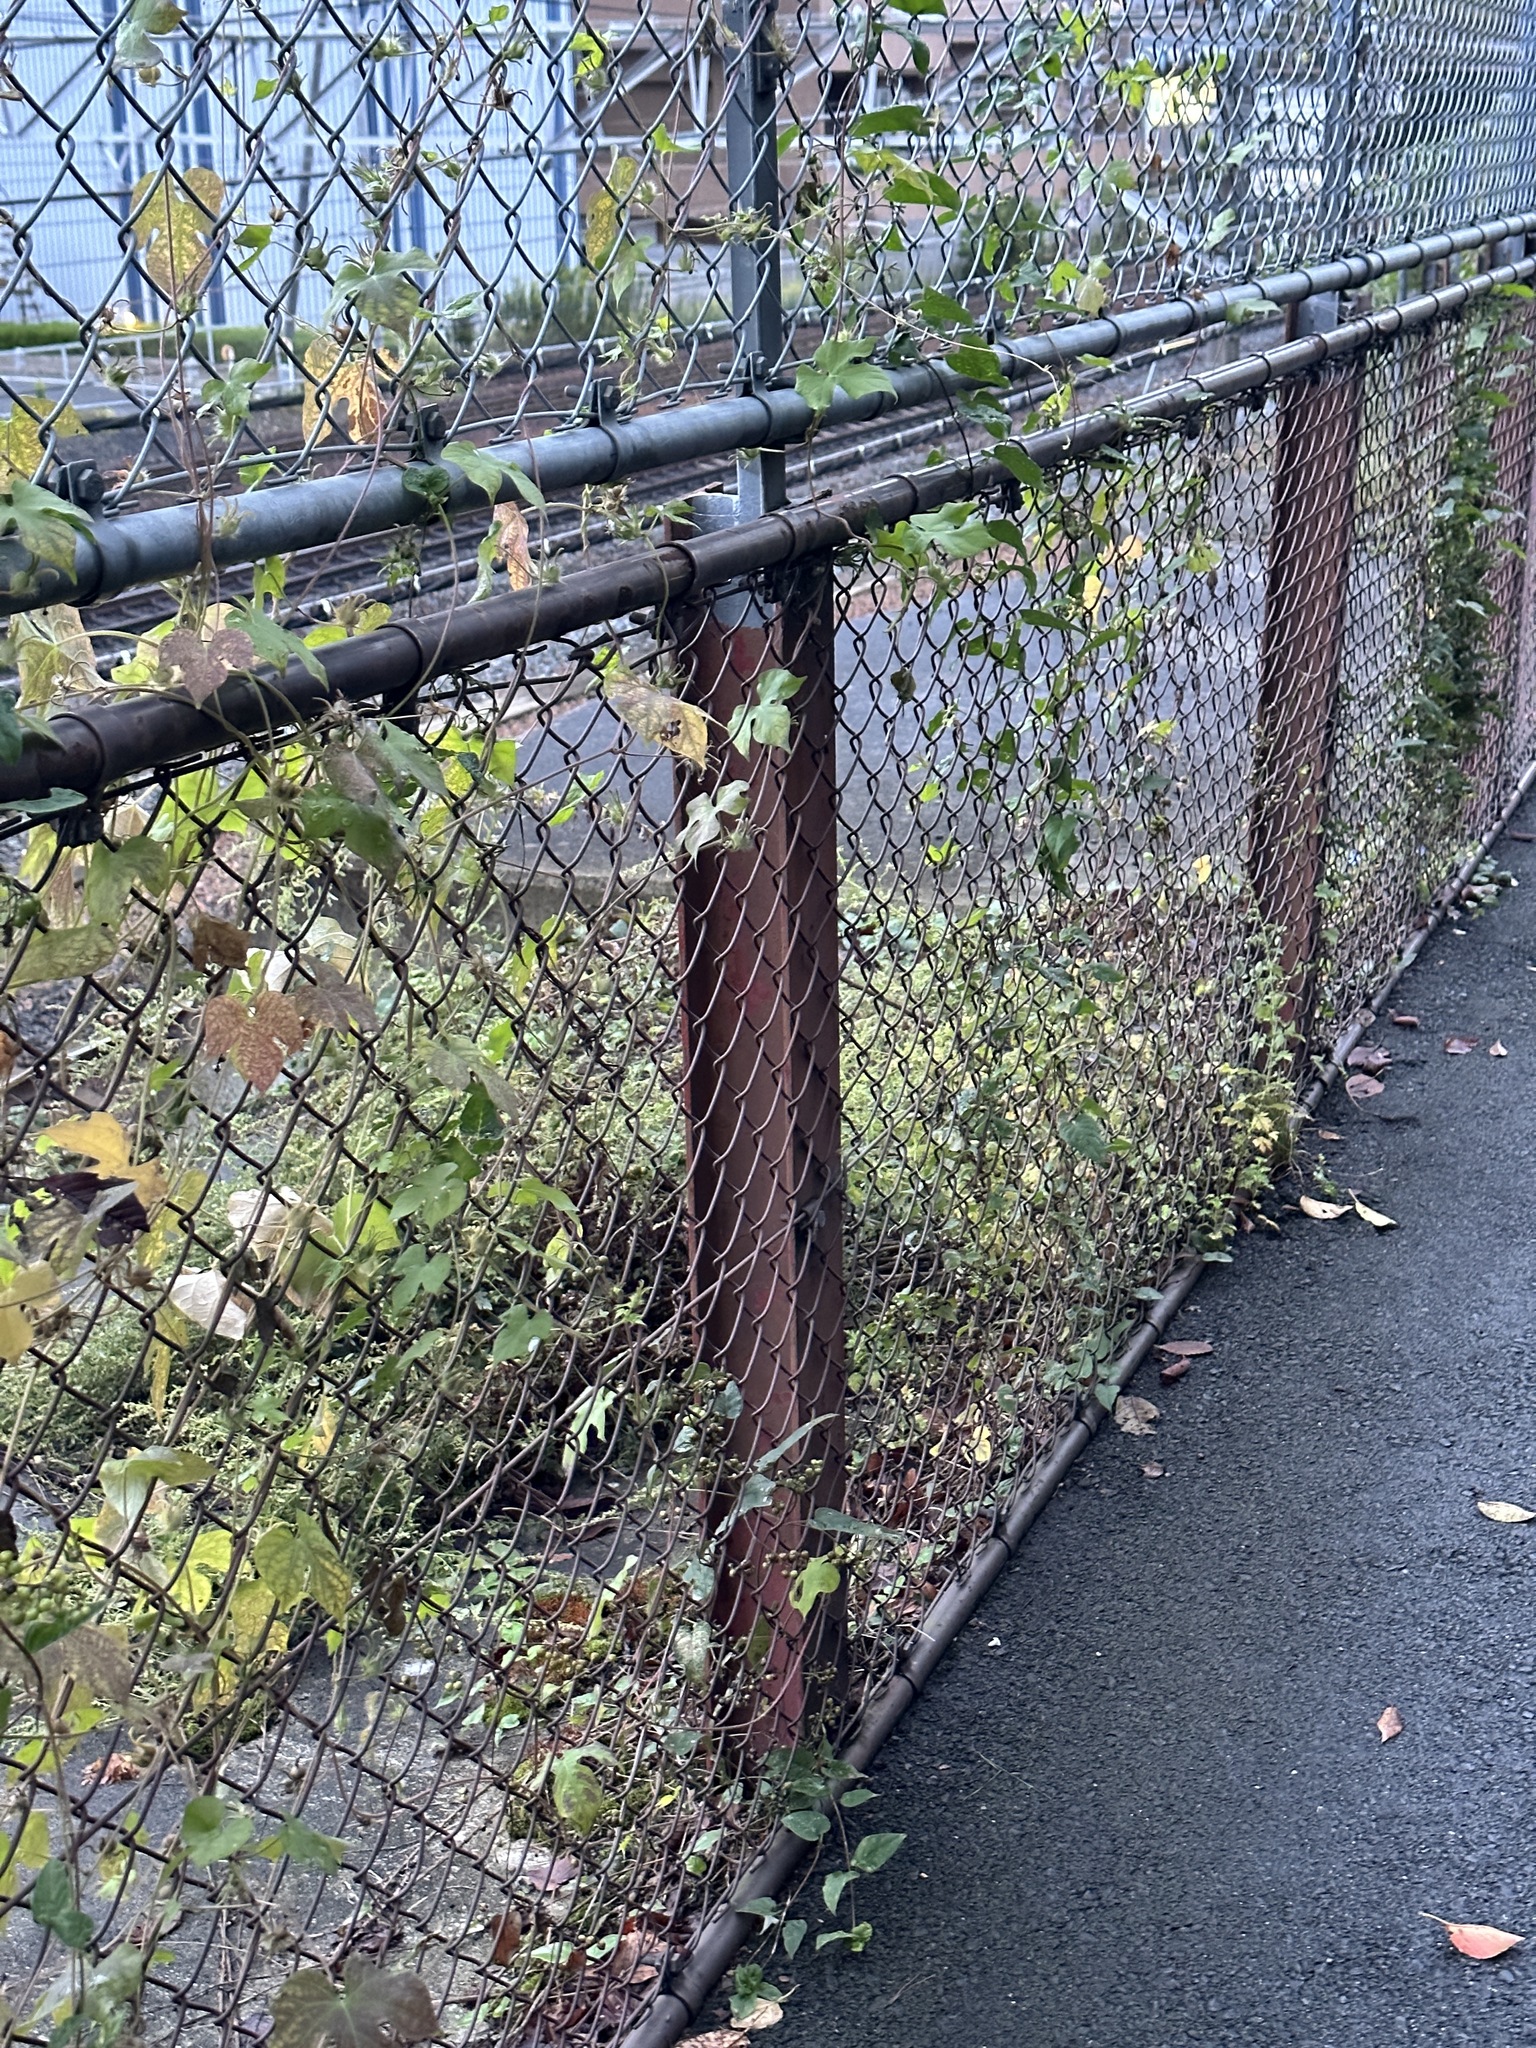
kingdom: Animalia
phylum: Arthropoda
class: Insecta
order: Orthoptera
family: Gryllidae
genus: Teleogryllus
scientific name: Teleogryllus emma
